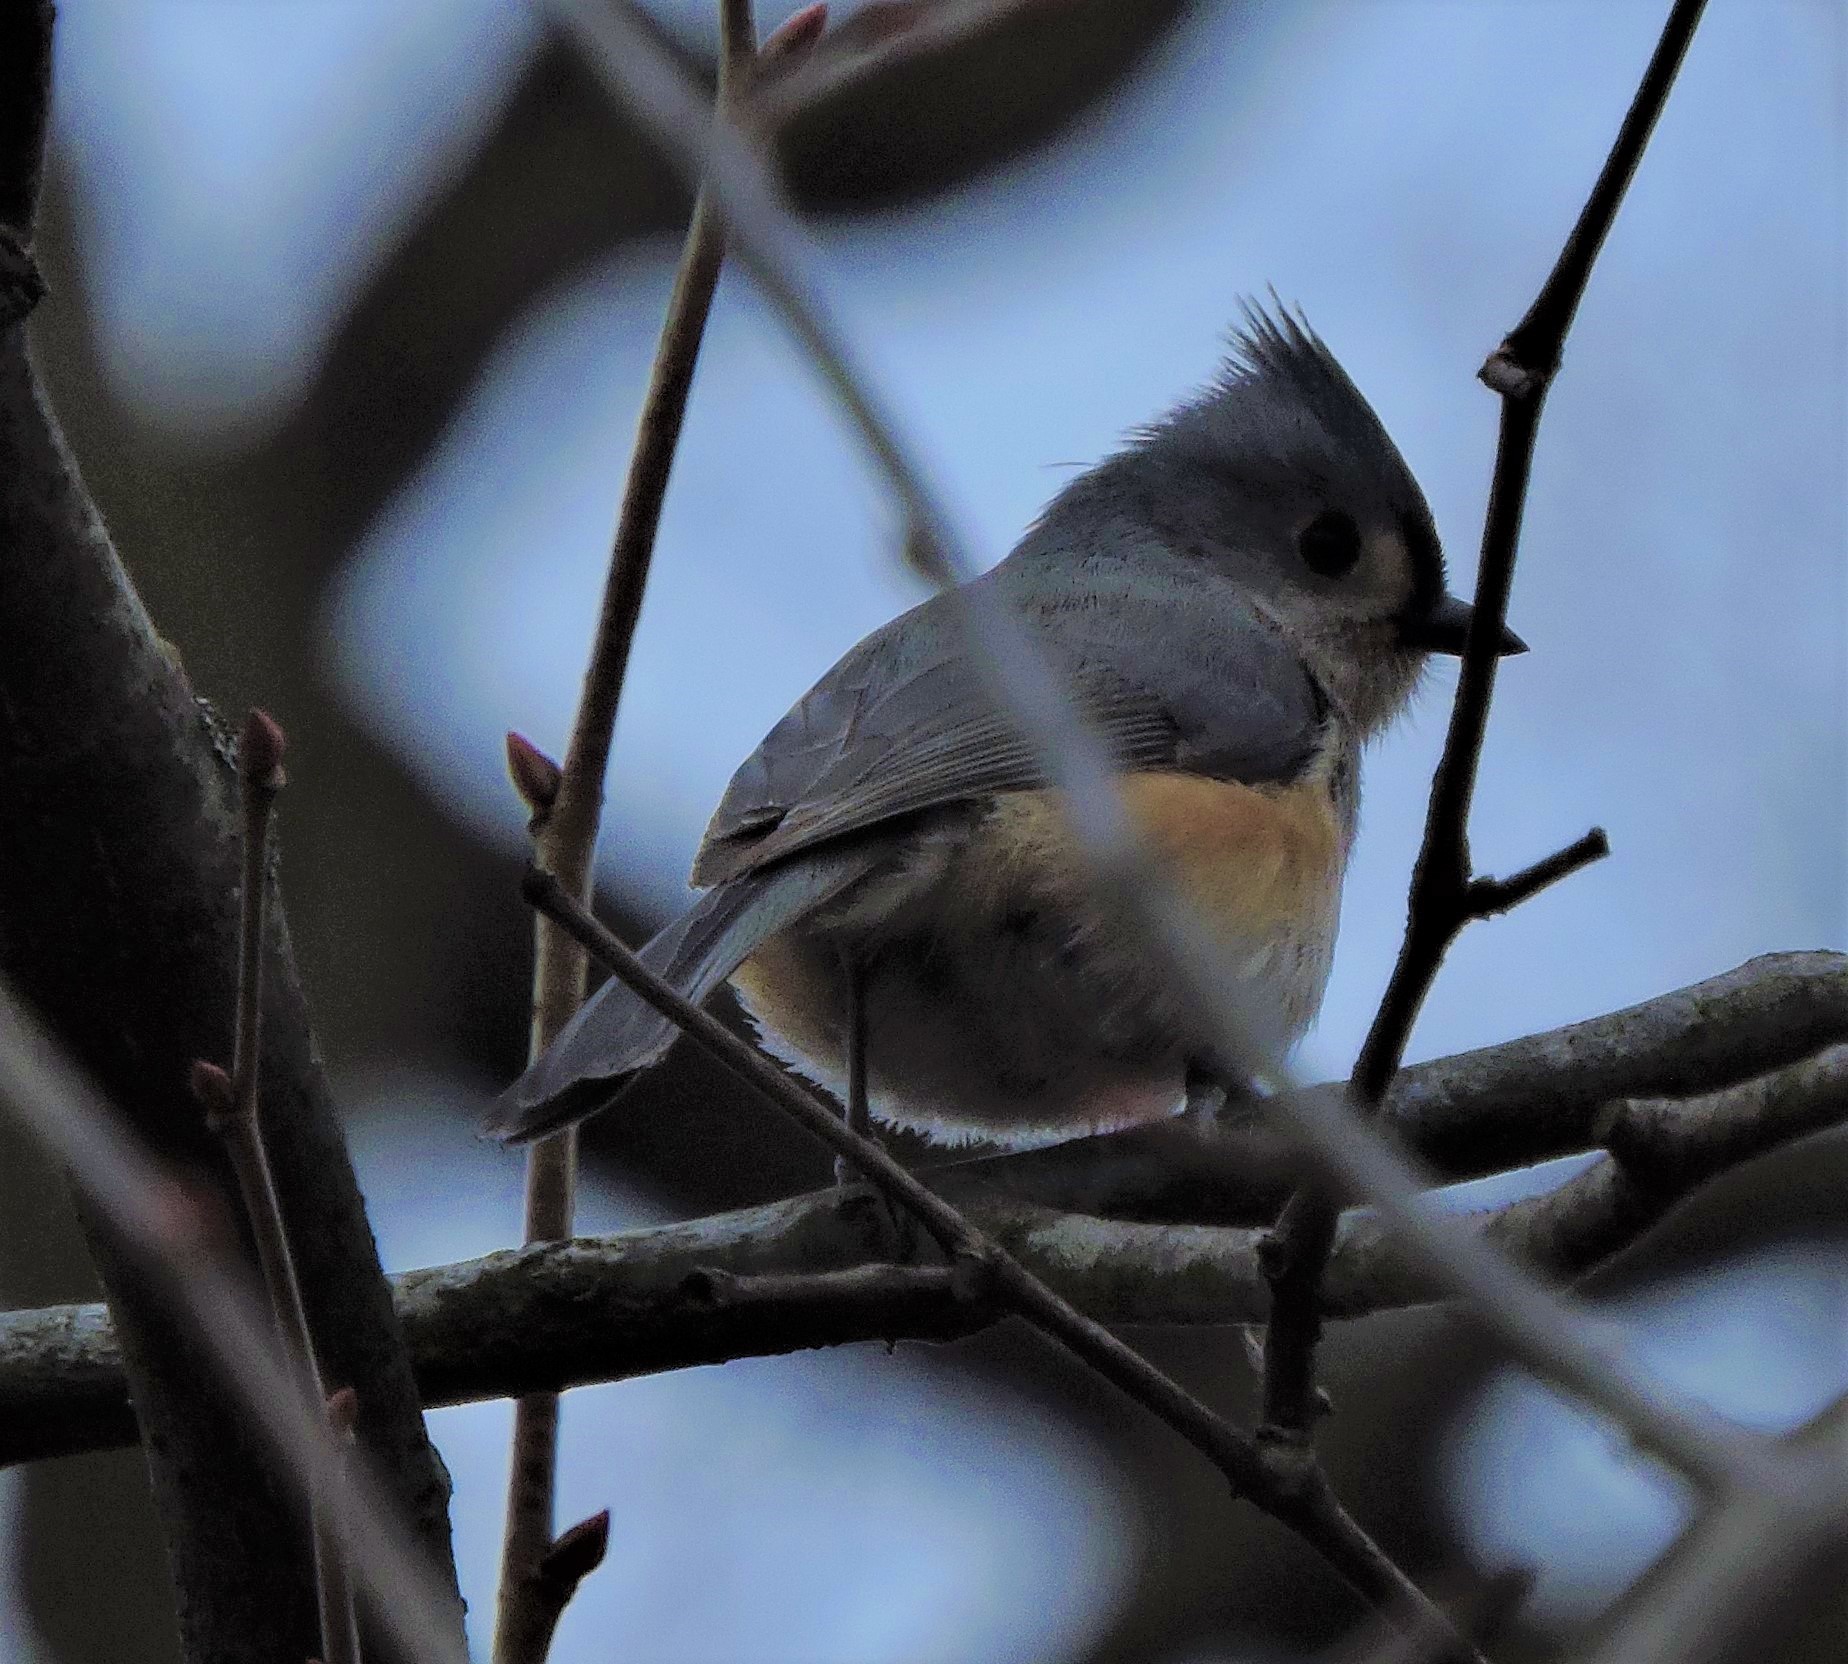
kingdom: Animalia
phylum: Chordata
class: Aves
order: Passeriformes
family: Paridae
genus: Baeolophus
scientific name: Baeolophus bicolor
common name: Tufted titmouse
